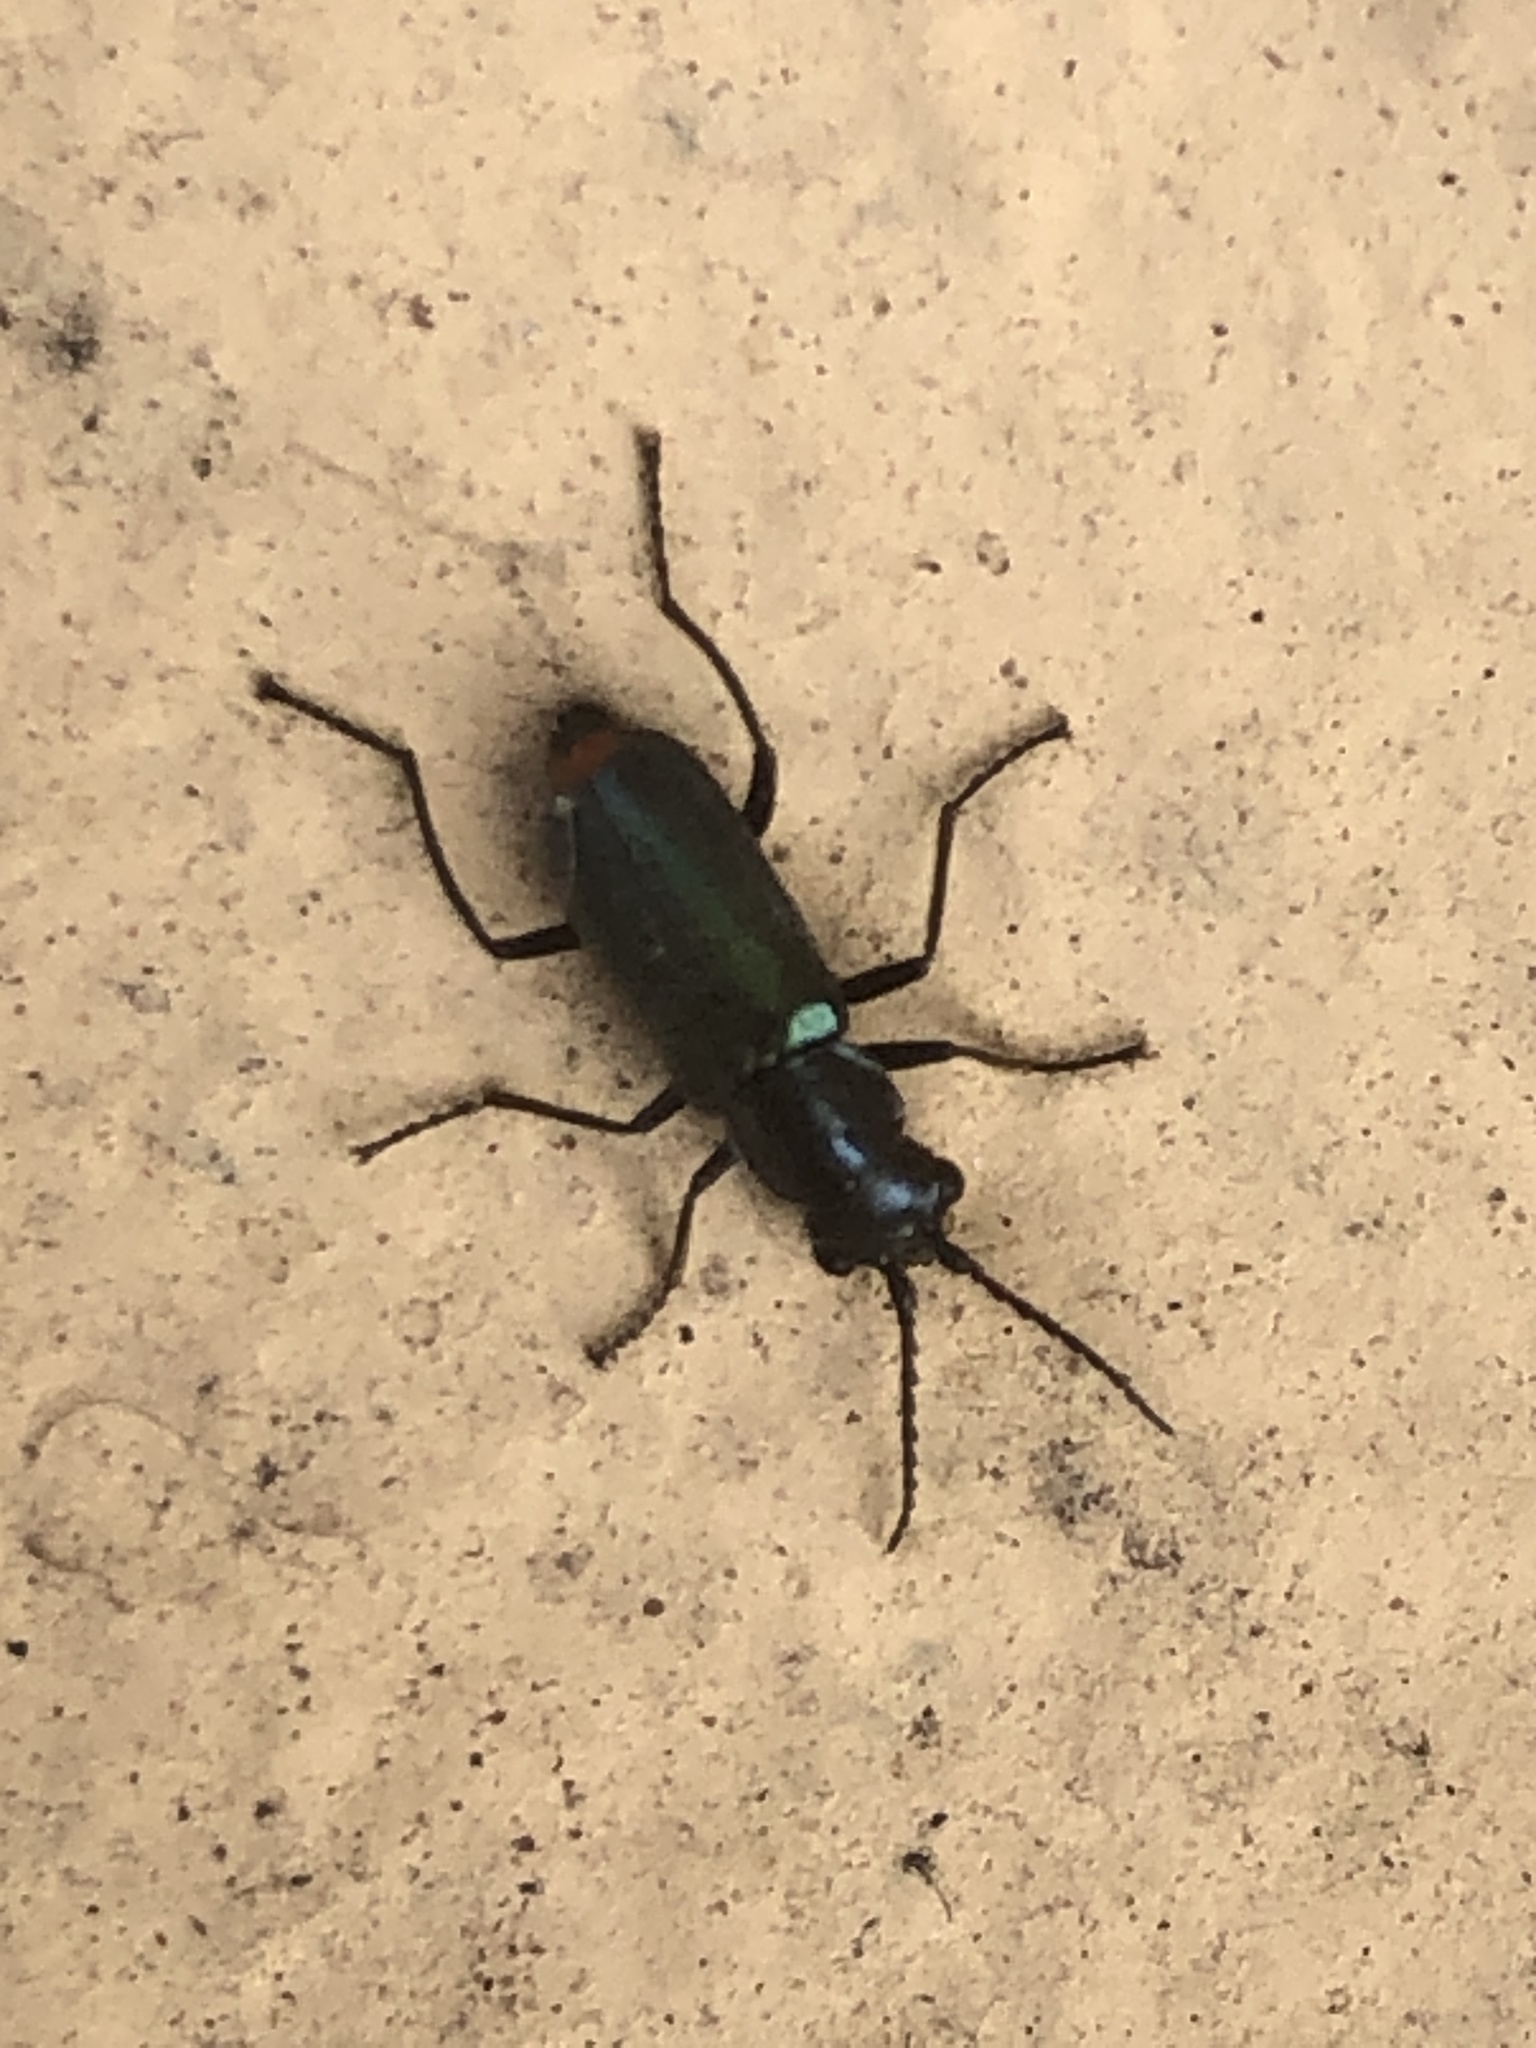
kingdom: Animalia
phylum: Arthropoda
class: Insecta
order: Coleoptera
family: Malachiidae
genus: Cordylepherus
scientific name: Cordylepherus viridis
